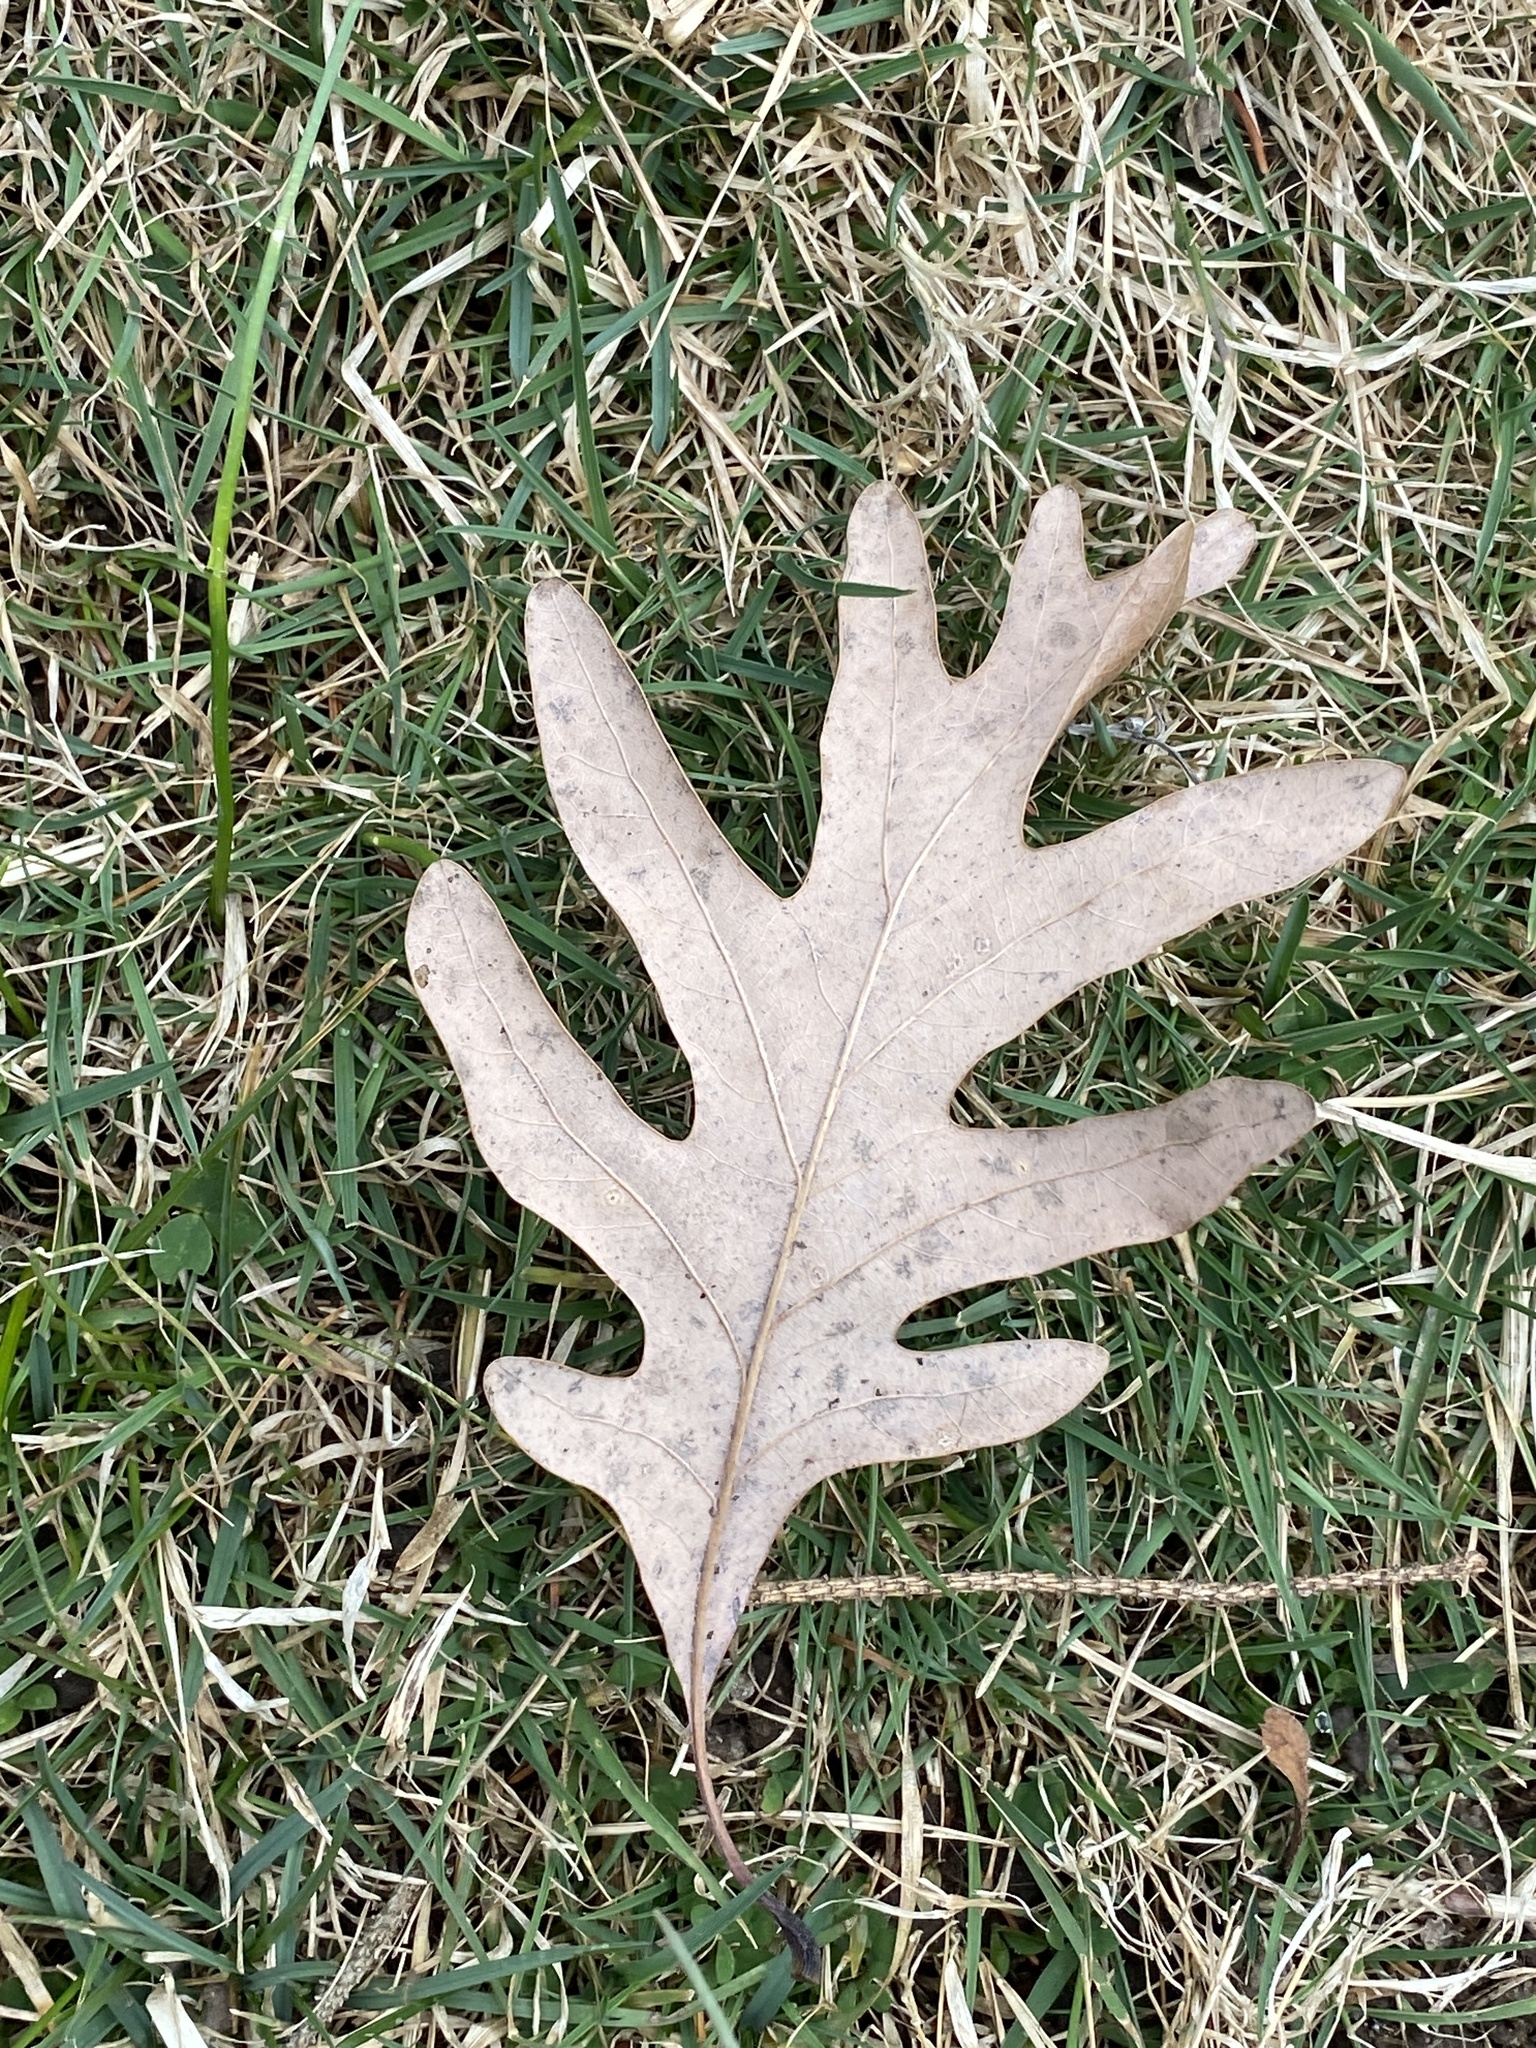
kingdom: Plantae
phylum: Tracheophyta
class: Magnoliopsida
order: Fagales
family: Fagaceae
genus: Quercus
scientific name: Quercus alba
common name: White oak
